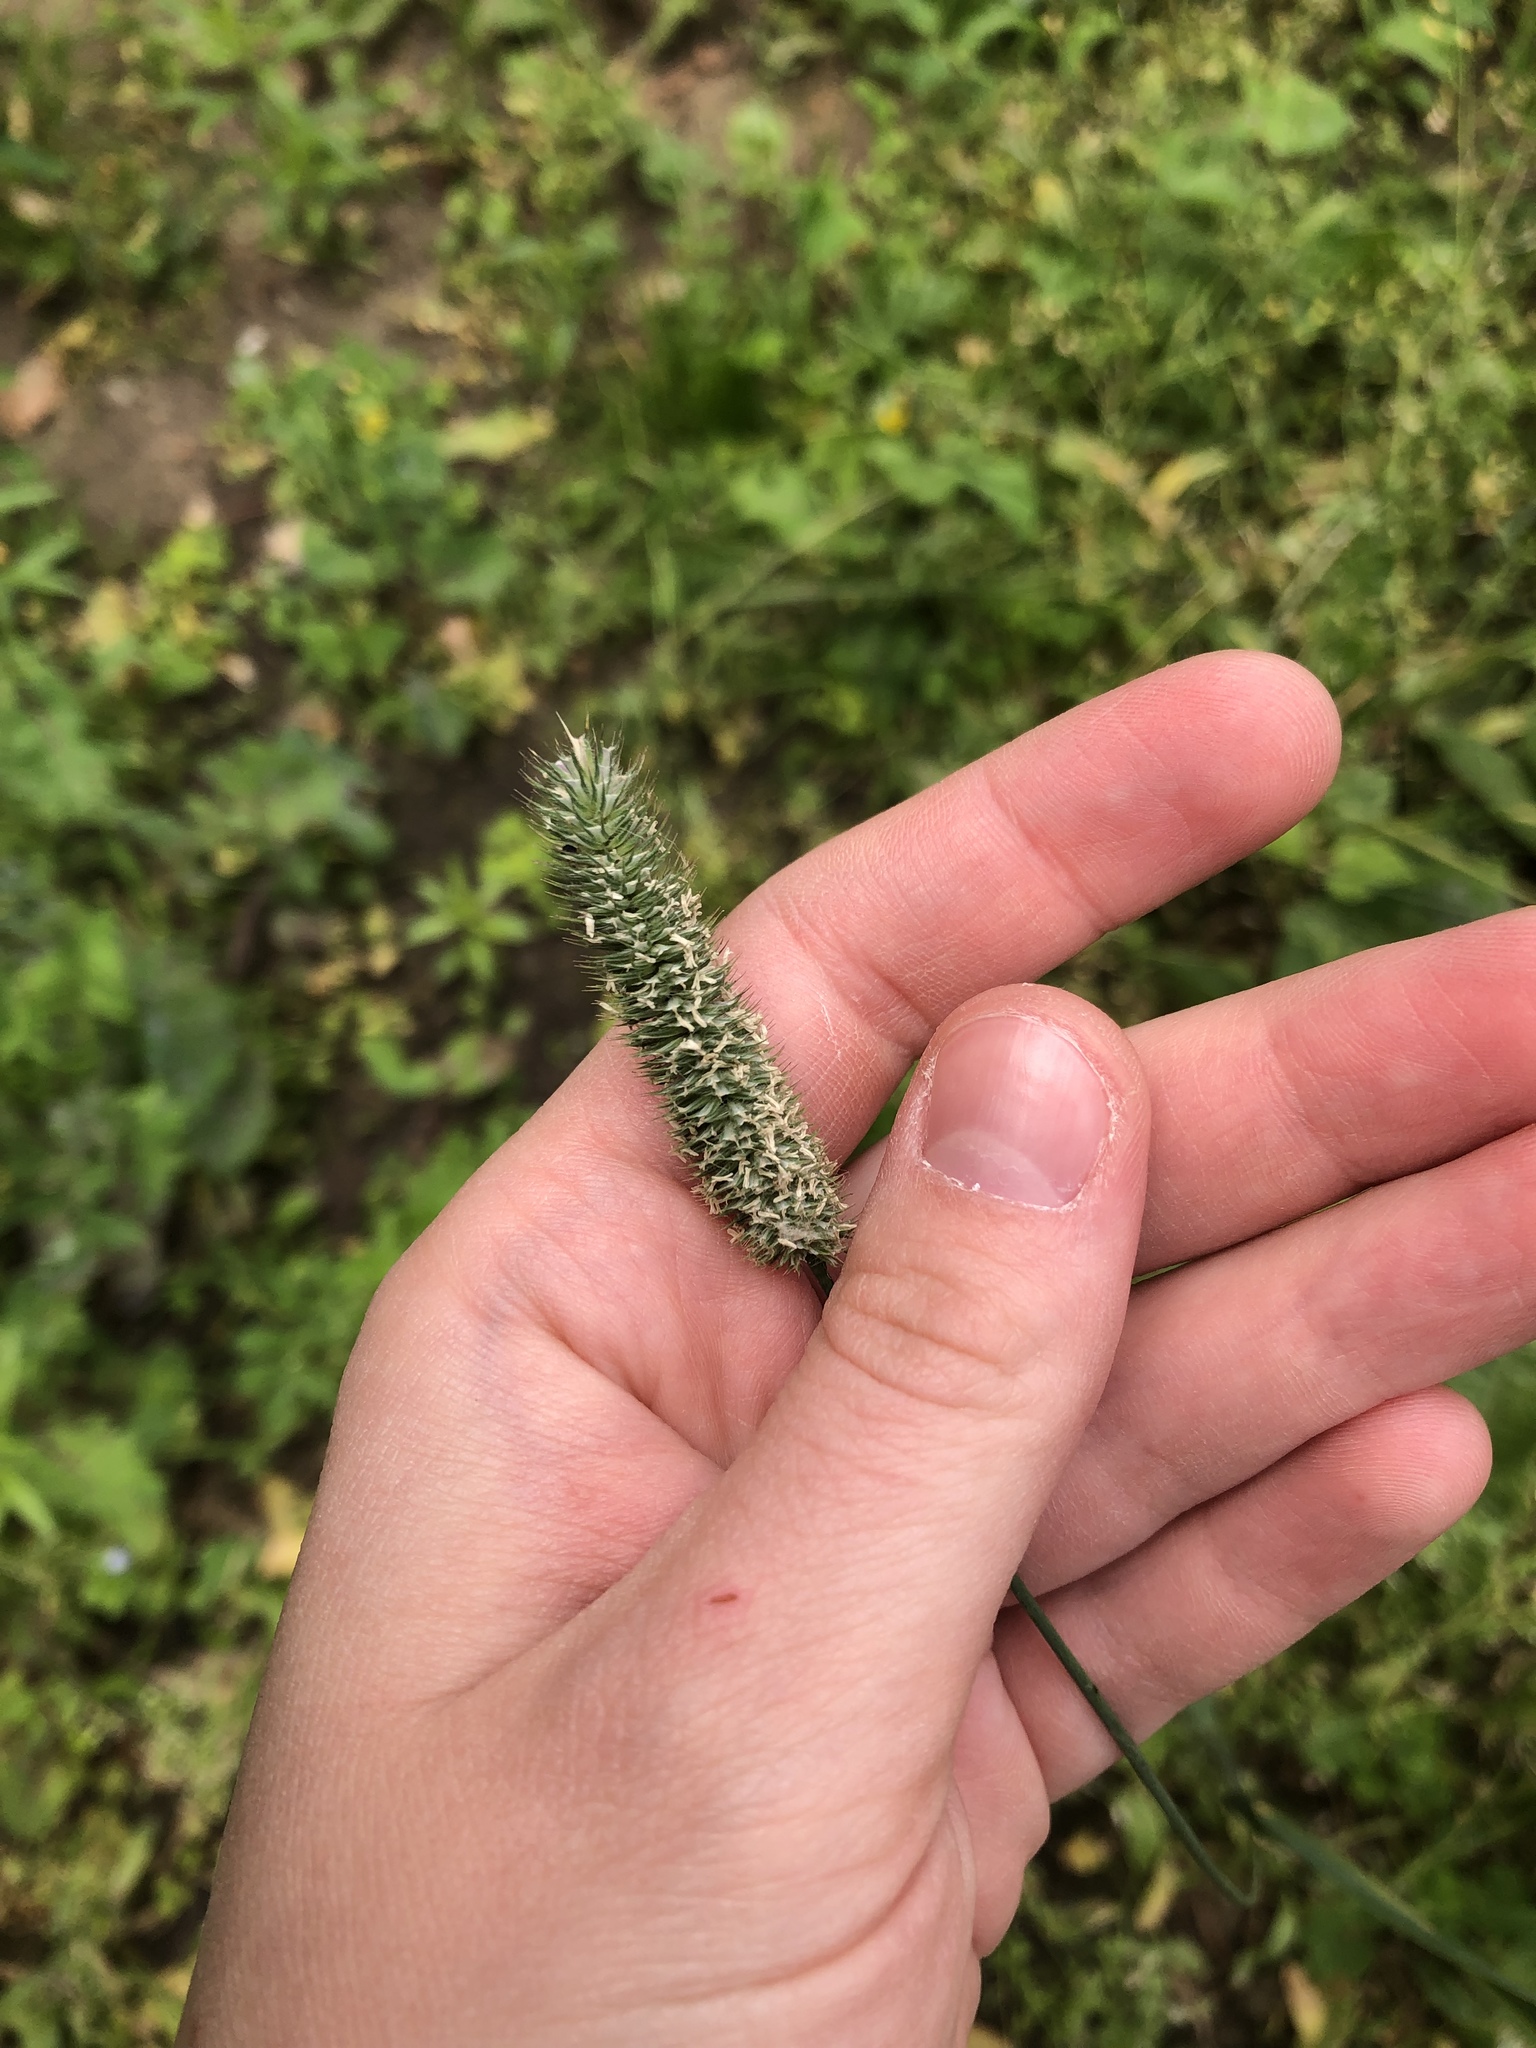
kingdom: Plantae
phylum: Tracheophyta
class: Liliopsida
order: Poales
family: Poaceae
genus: Phleum
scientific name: Phleum pratense
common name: Timothy grass
